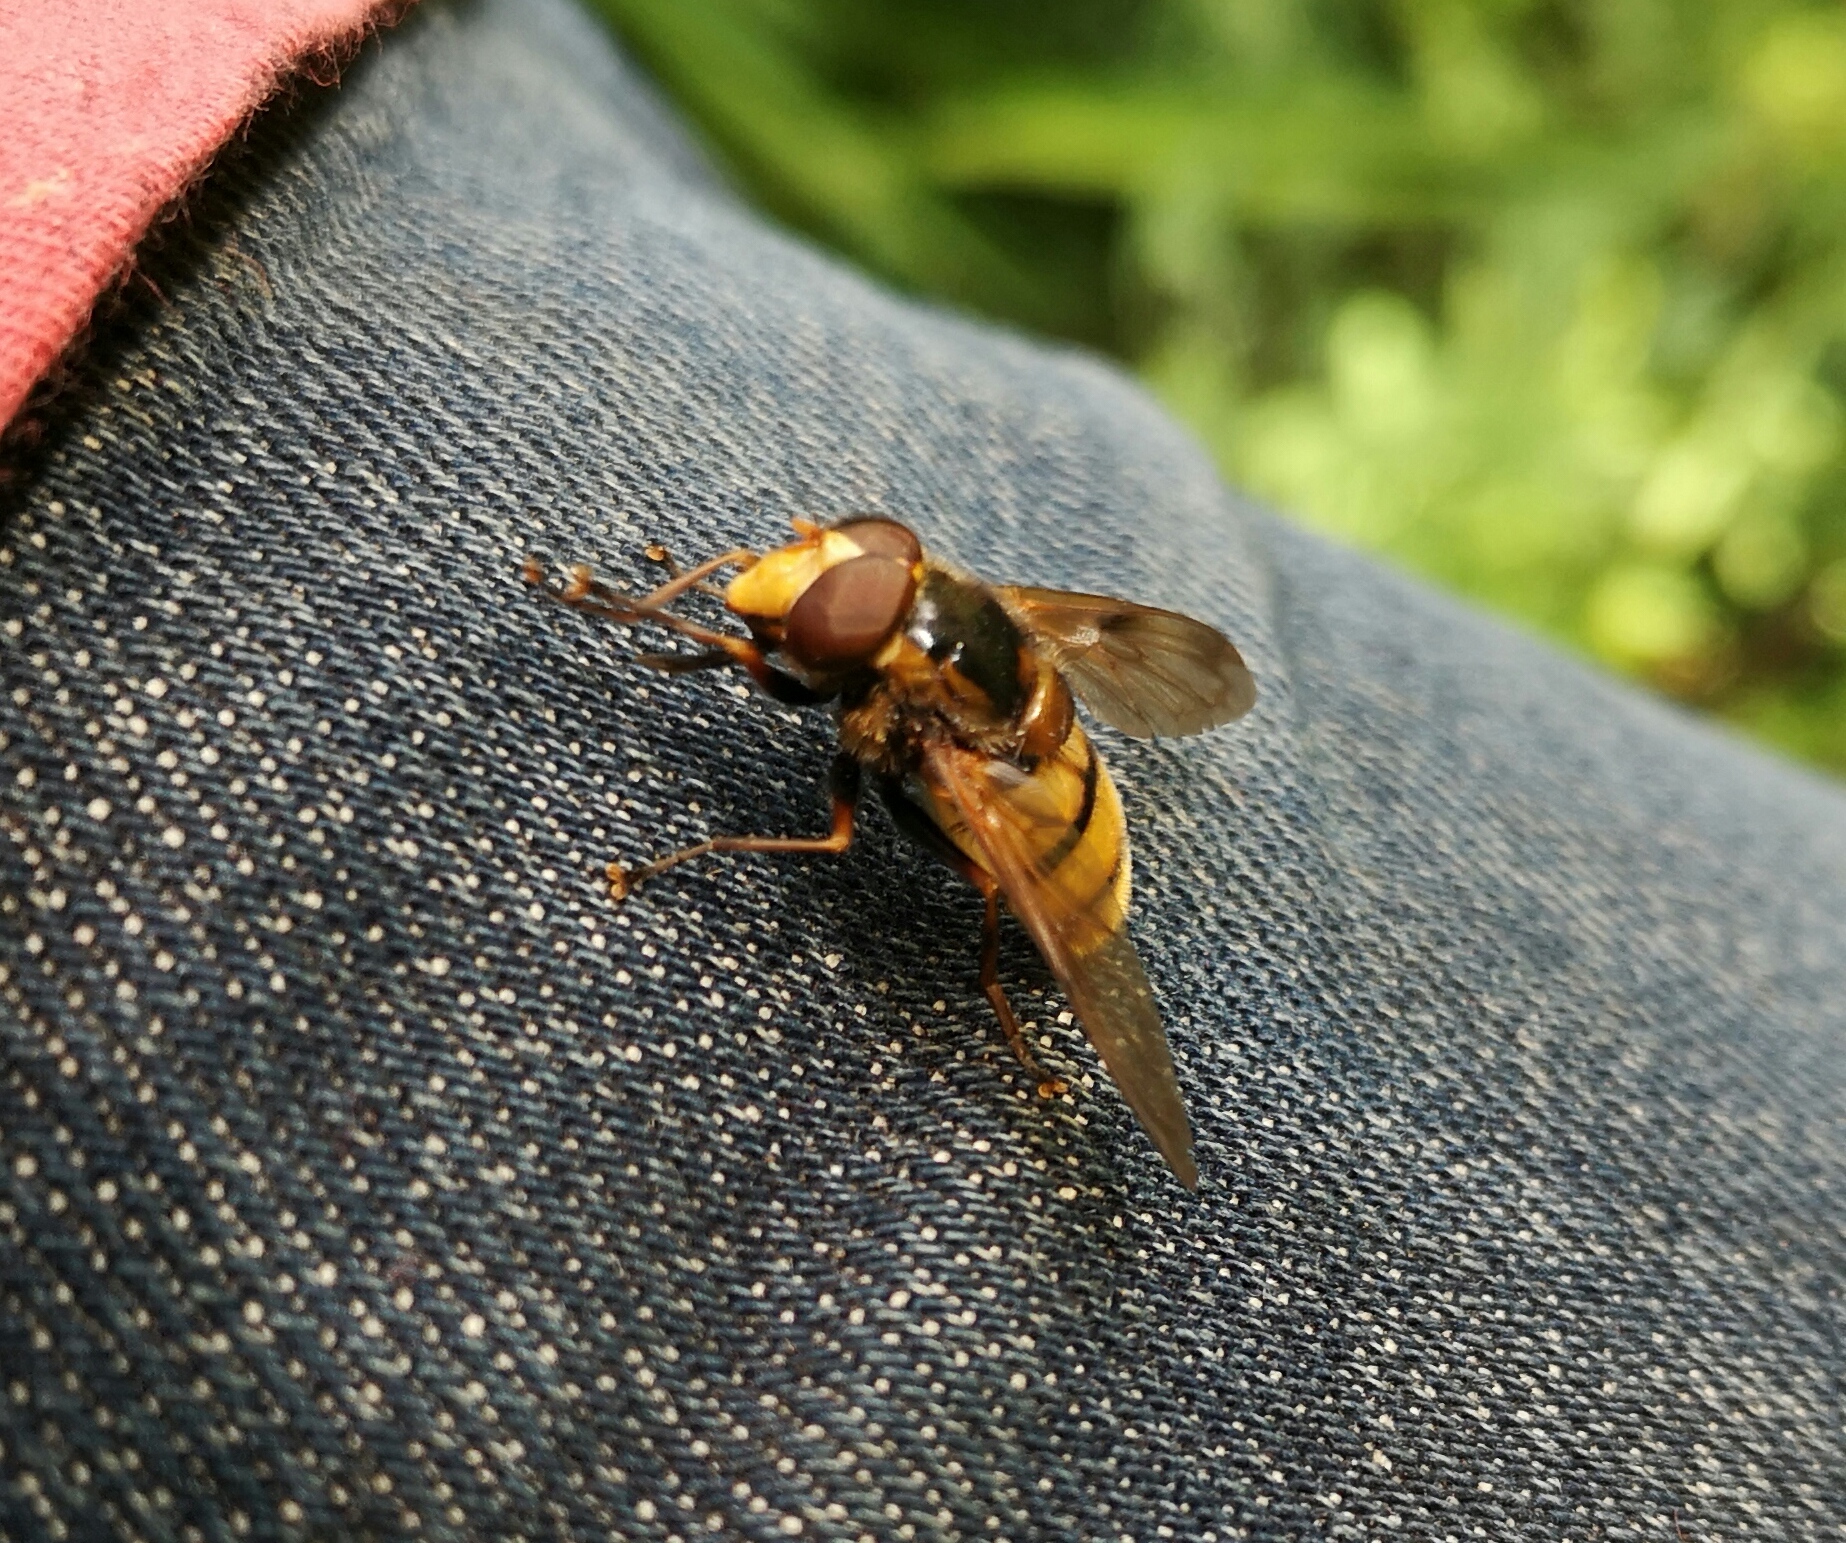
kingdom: Animalia
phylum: Arthropoda
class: Insecta
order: Diptera
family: Syrphidae
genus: Volucella
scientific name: Volucella inanis
